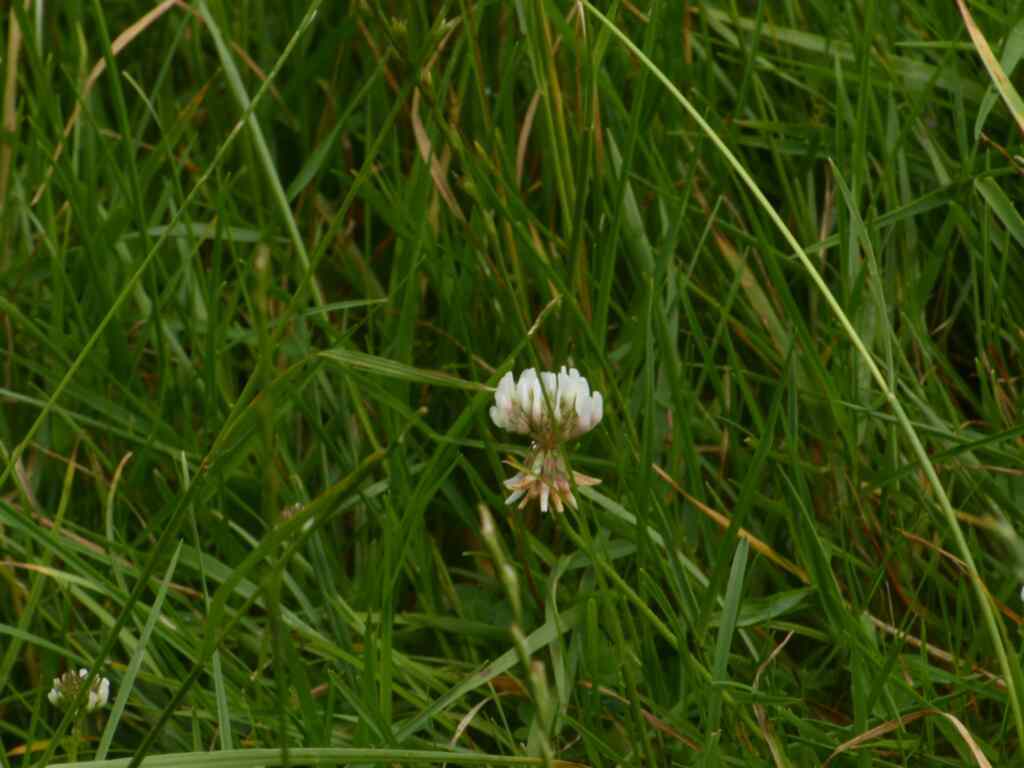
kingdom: Plantae
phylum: Tracheophyta
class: Magnoliopsida
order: Fabales
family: Fabaceae
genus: Trifolium
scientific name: Trifolium repens
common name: White clover
